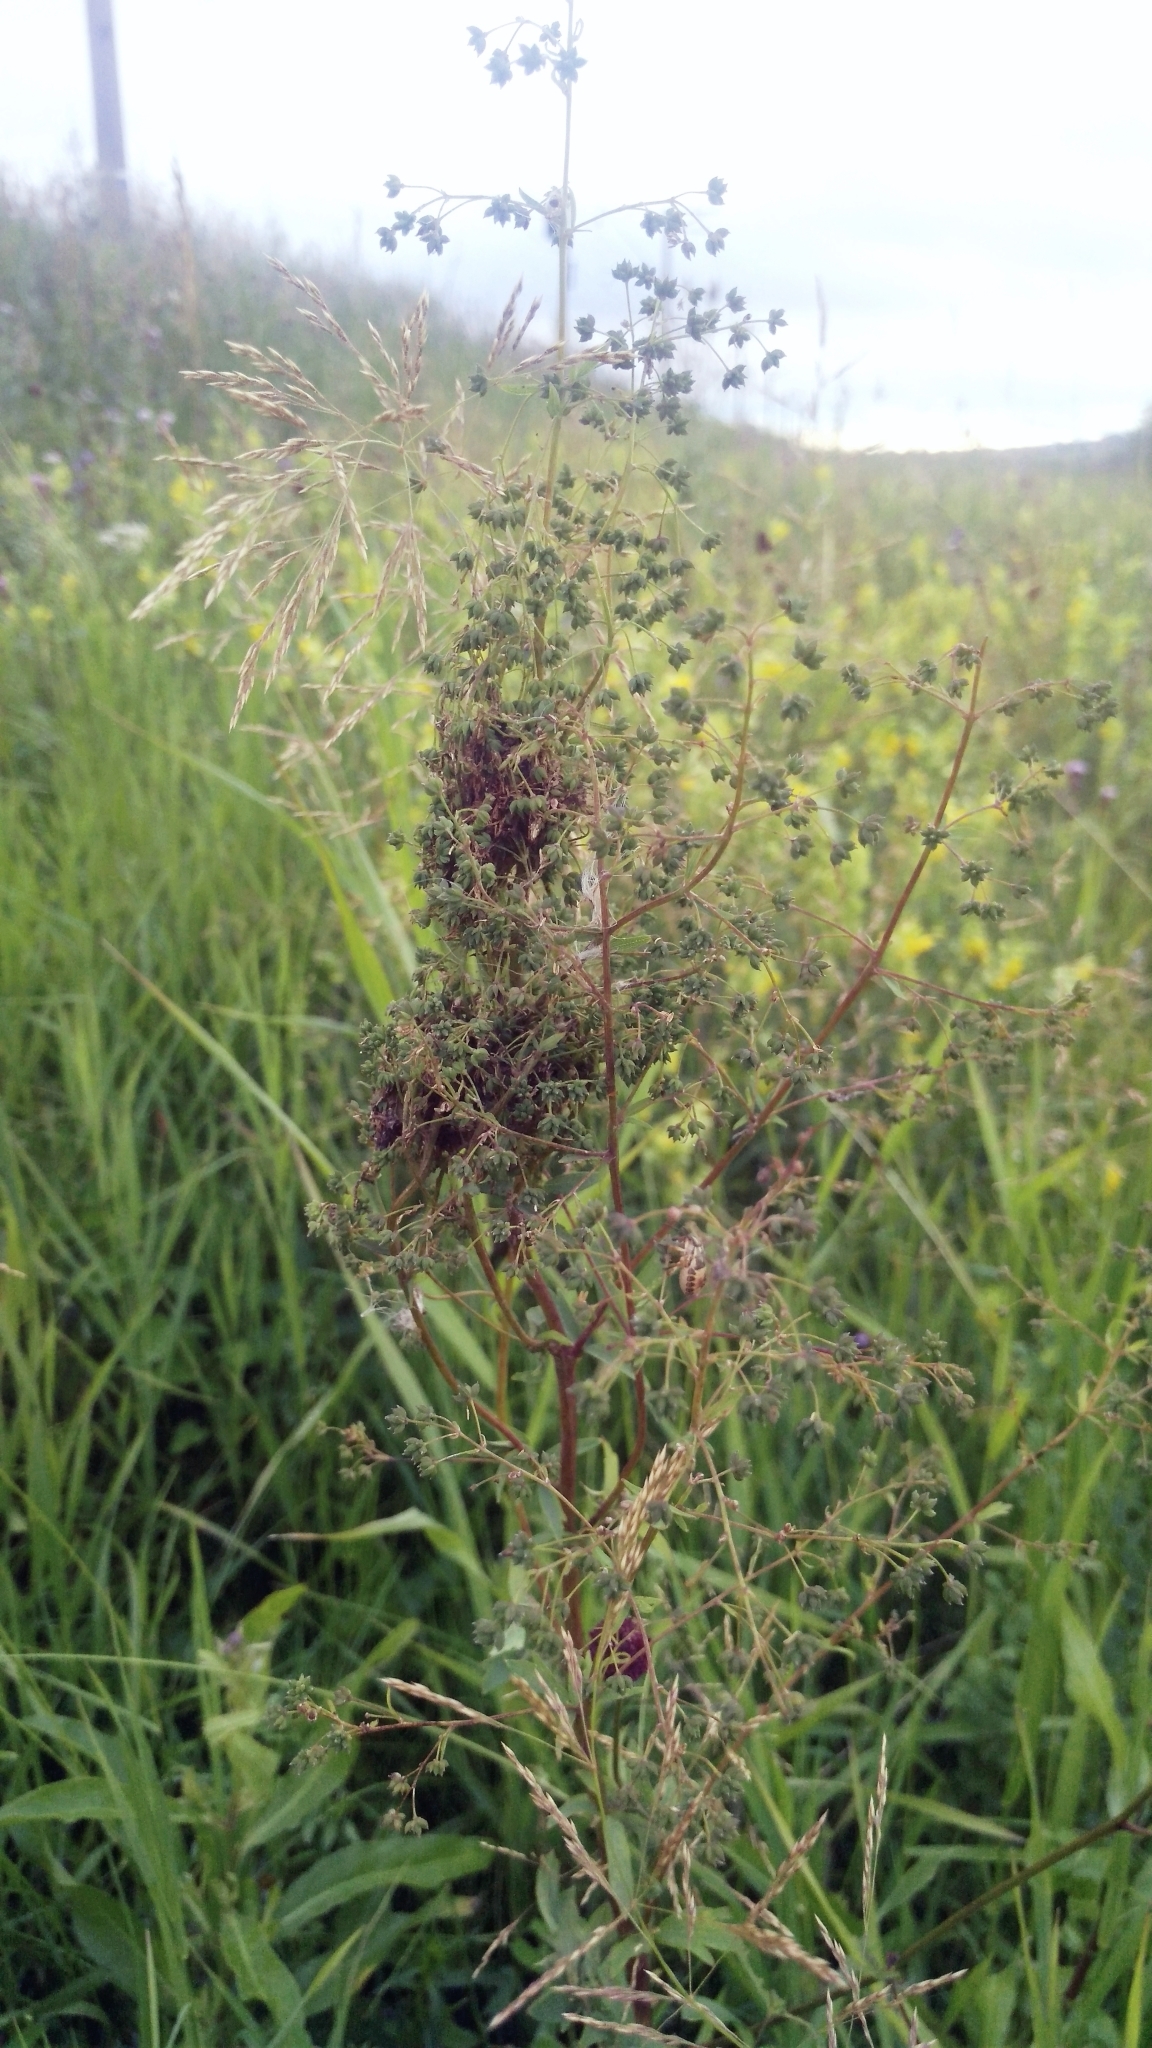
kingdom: Plantae
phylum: Tracheophyta
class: Magnoliopsida
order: Ranunculales
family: Ranunculaceae
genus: Thalictrum
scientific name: Thalictrum simplex
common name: Small meadow-rue
